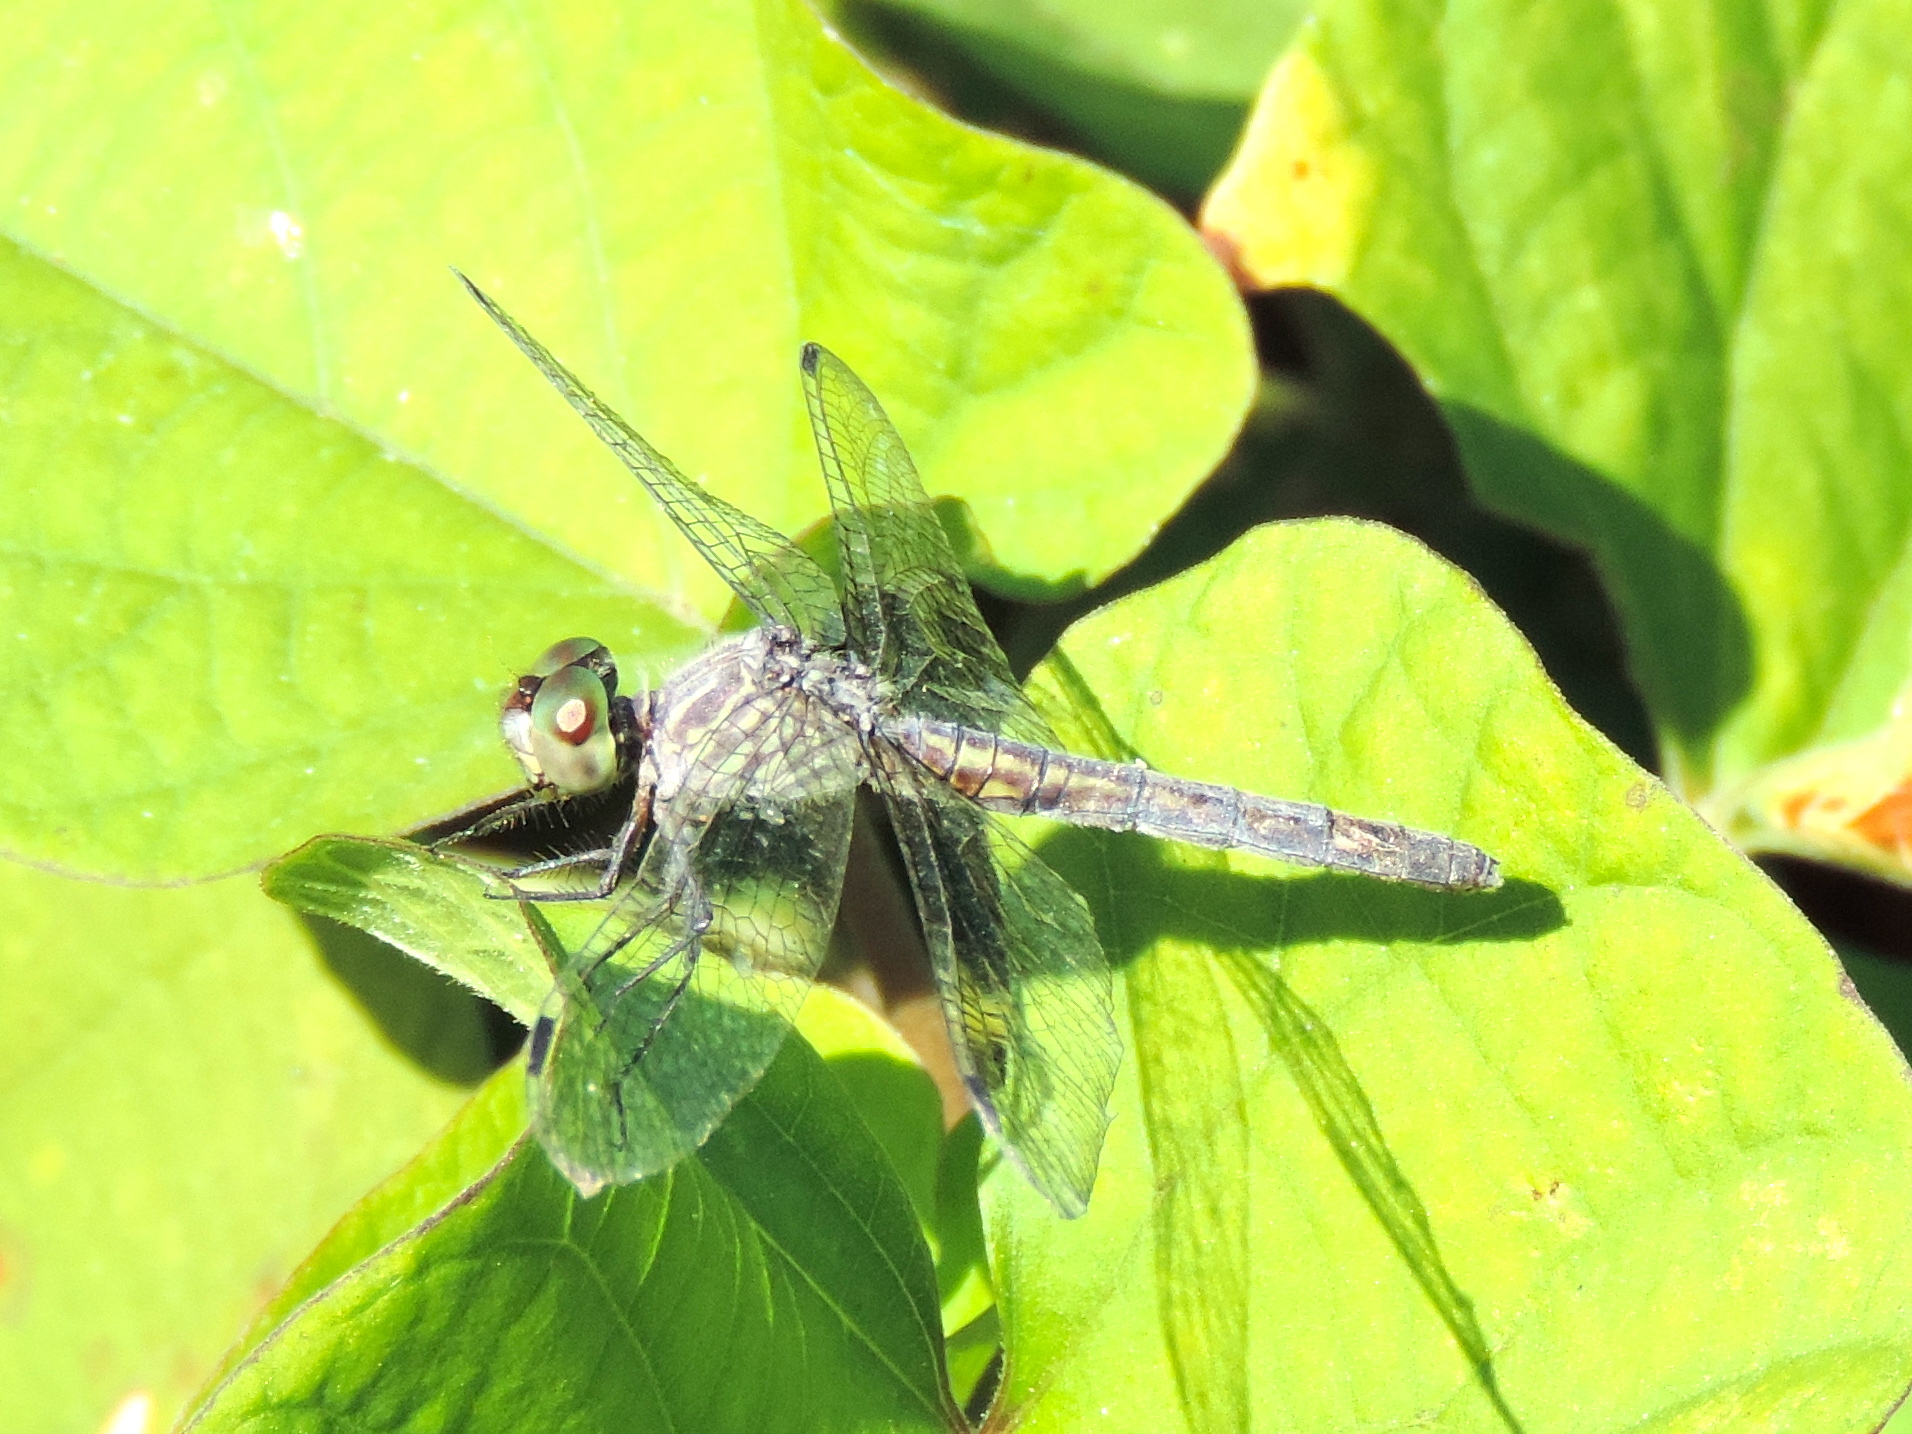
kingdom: Animalia
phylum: Arthropoda
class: Insecta
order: Odonata
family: Libellulidae
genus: Micrathyria
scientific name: Micrathyria
